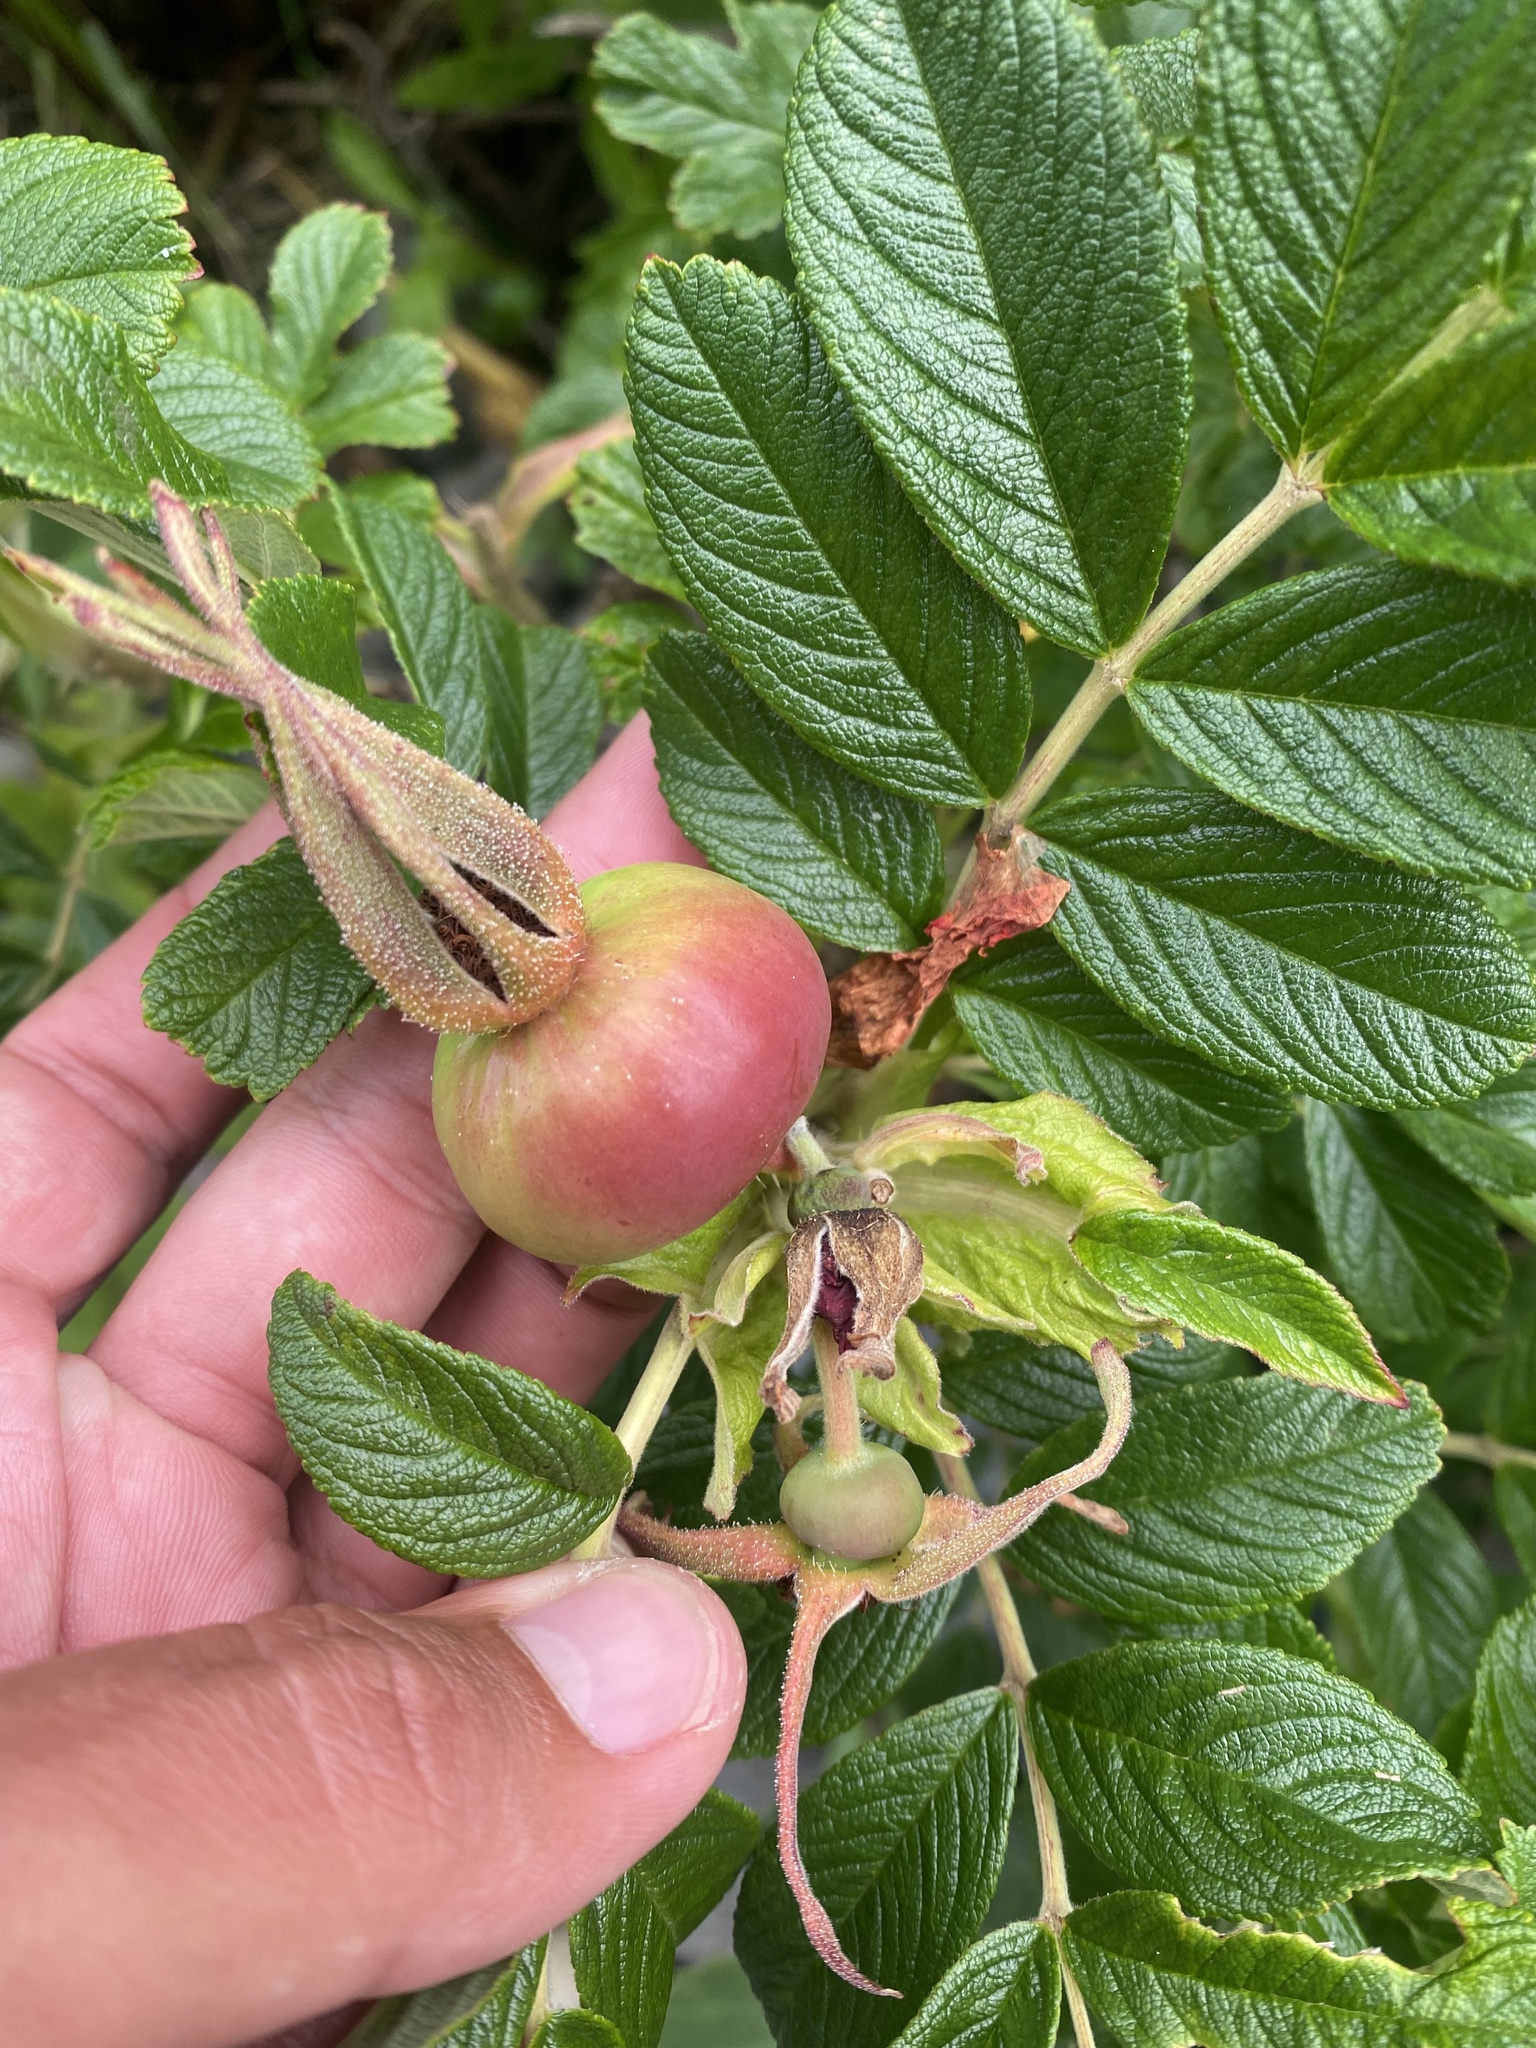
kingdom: Plantae
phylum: Tracheophyta
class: Magnoliopsida
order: Rosales
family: Rosaceae
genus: Rosa
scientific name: Rosa rugosa
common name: Japanese rose
